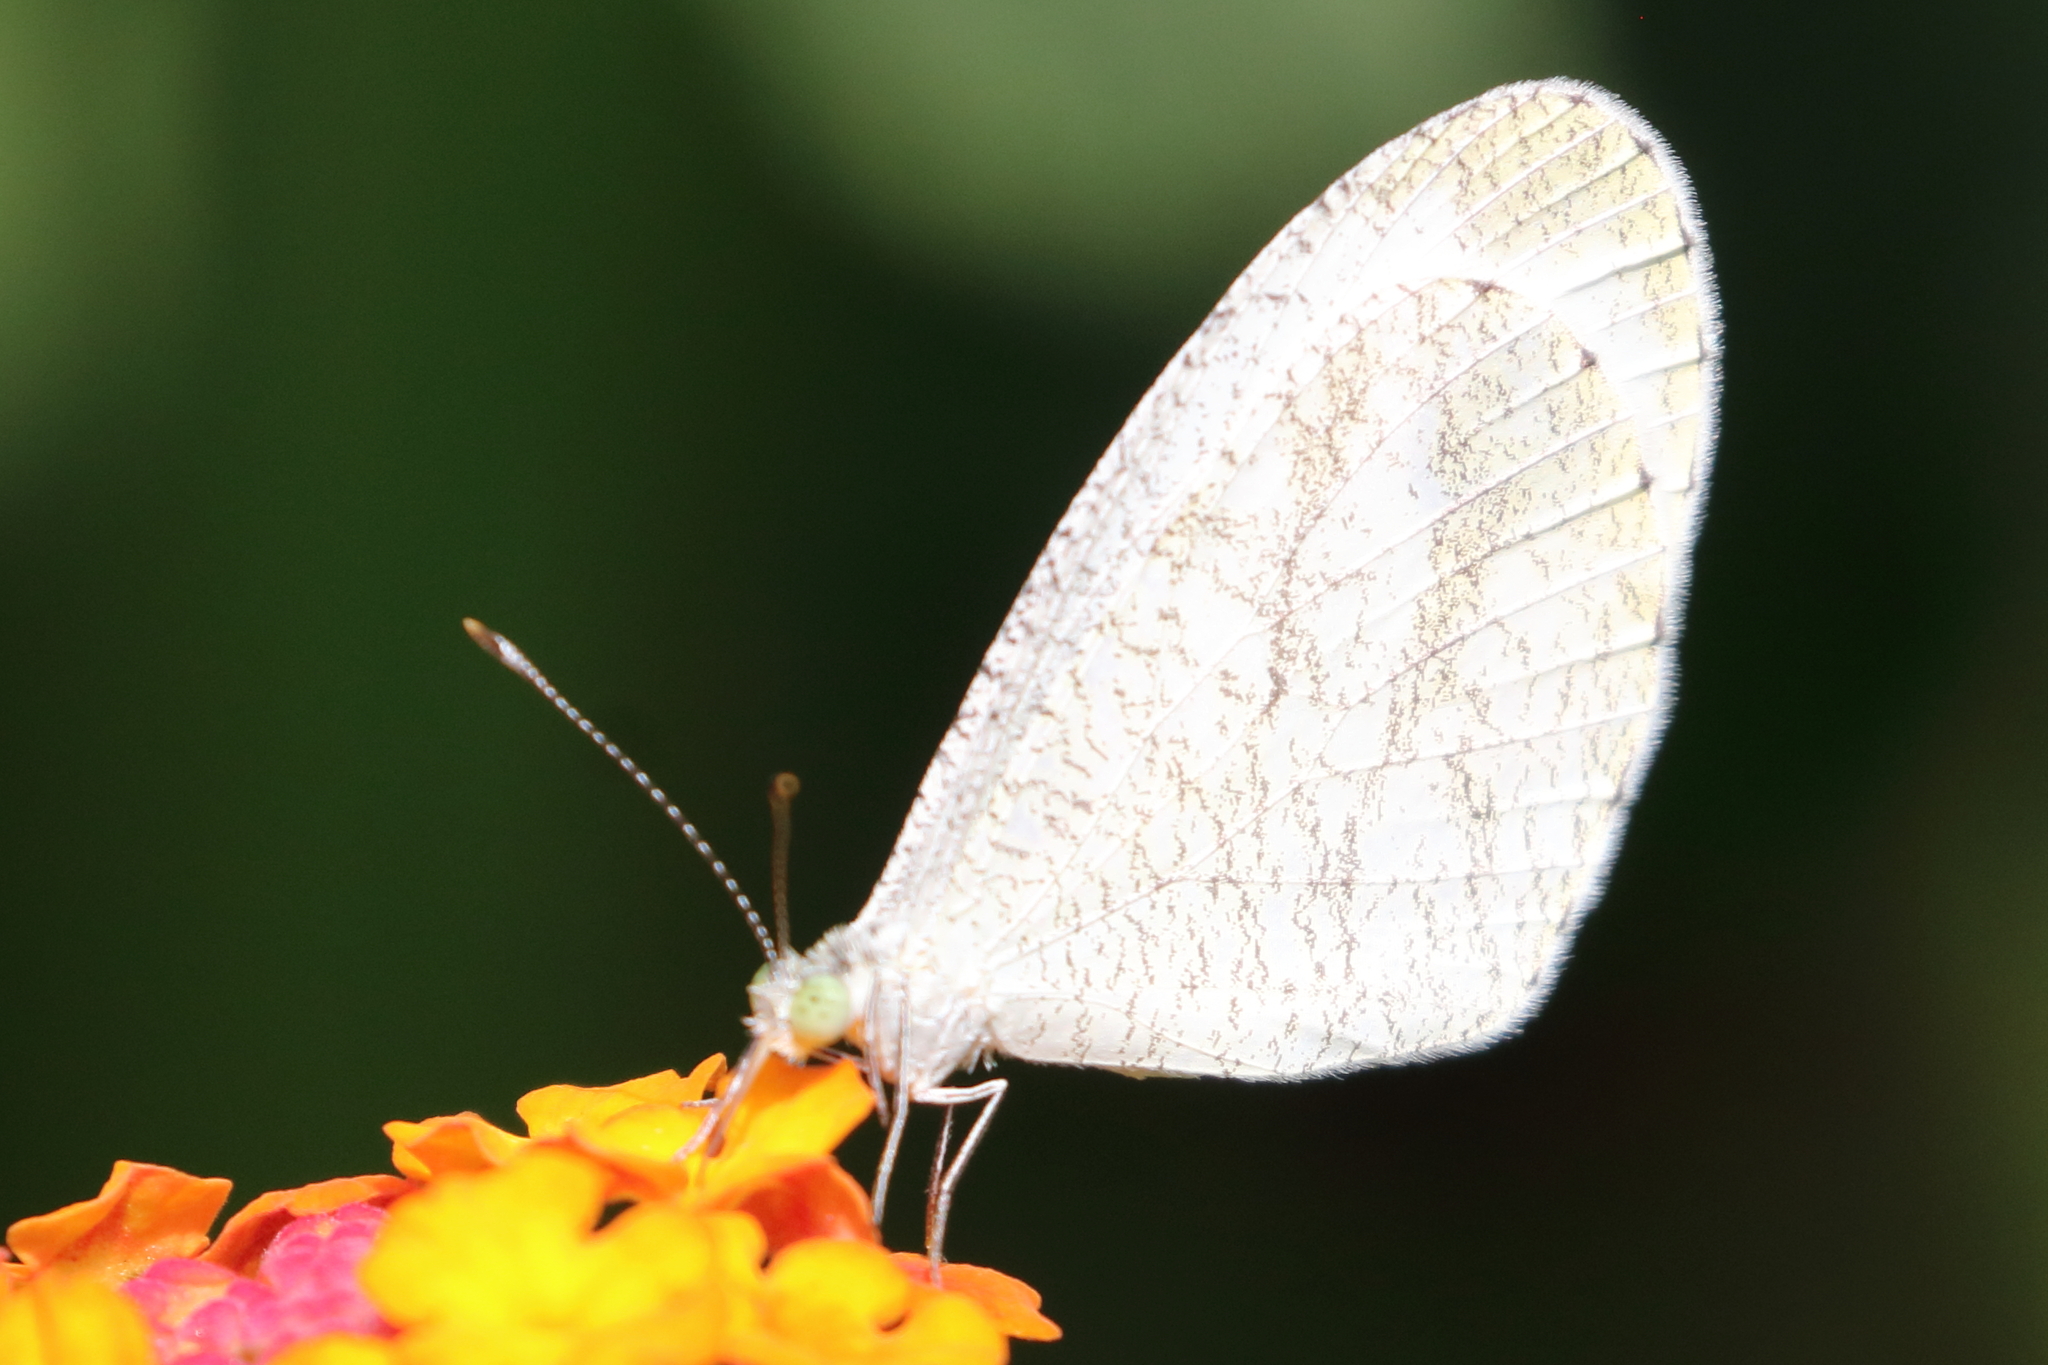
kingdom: Animalia
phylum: Arthropoda
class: Insecta
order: Lepidoptera
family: Pieridae
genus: Leptosia
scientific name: Leptosia nina
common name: Psyche
